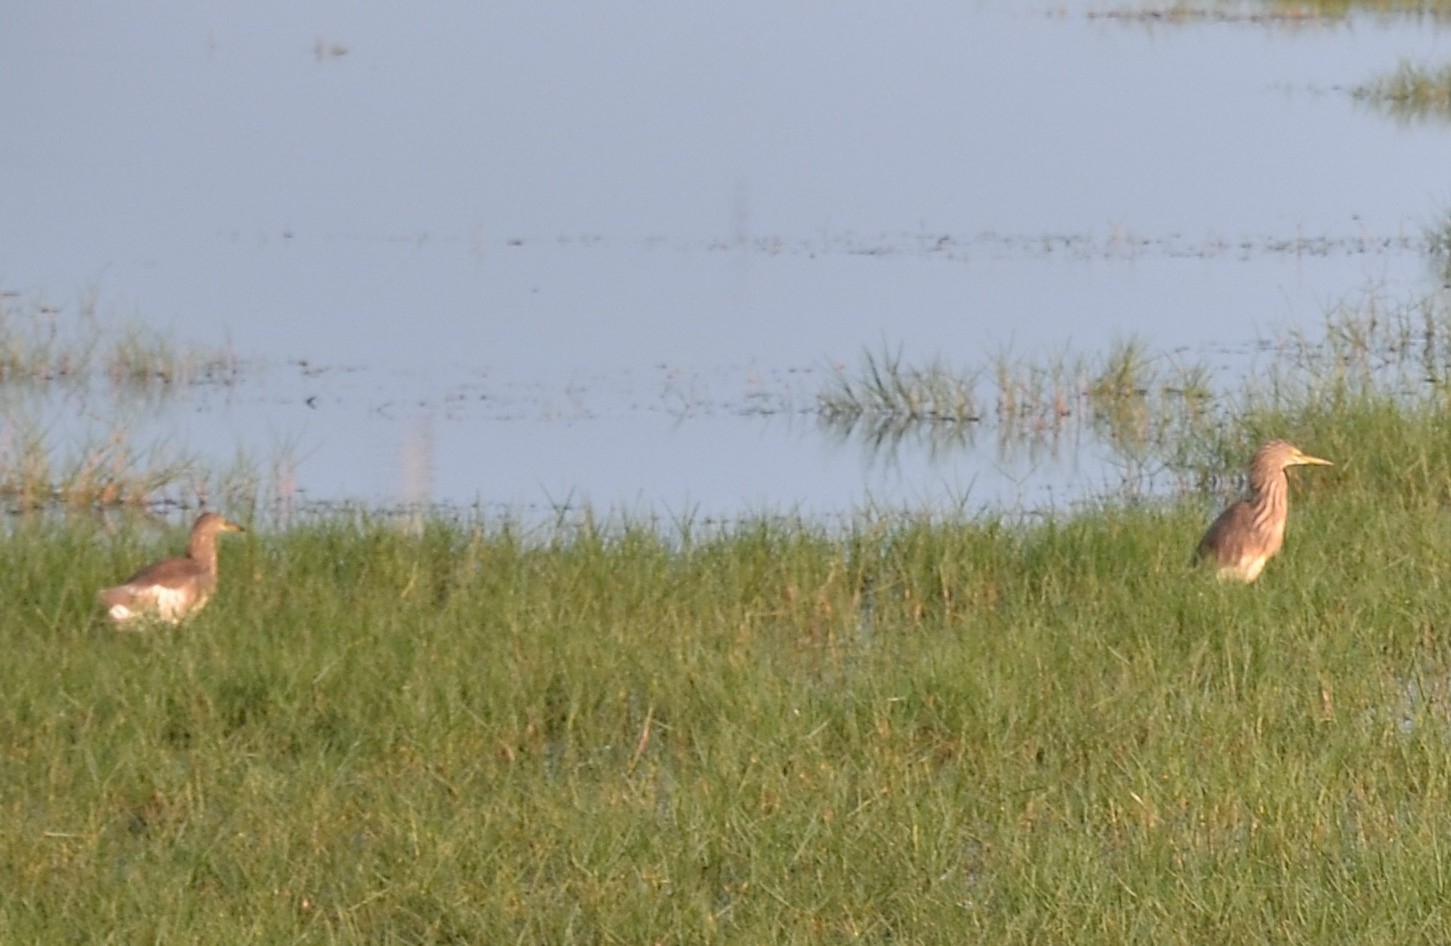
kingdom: Animalia
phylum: Chordata
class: Aves
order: Pelecaniformes
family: Ardeidae
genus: Ardeola
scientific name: Ardeola grayii
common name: Indian pond heron
